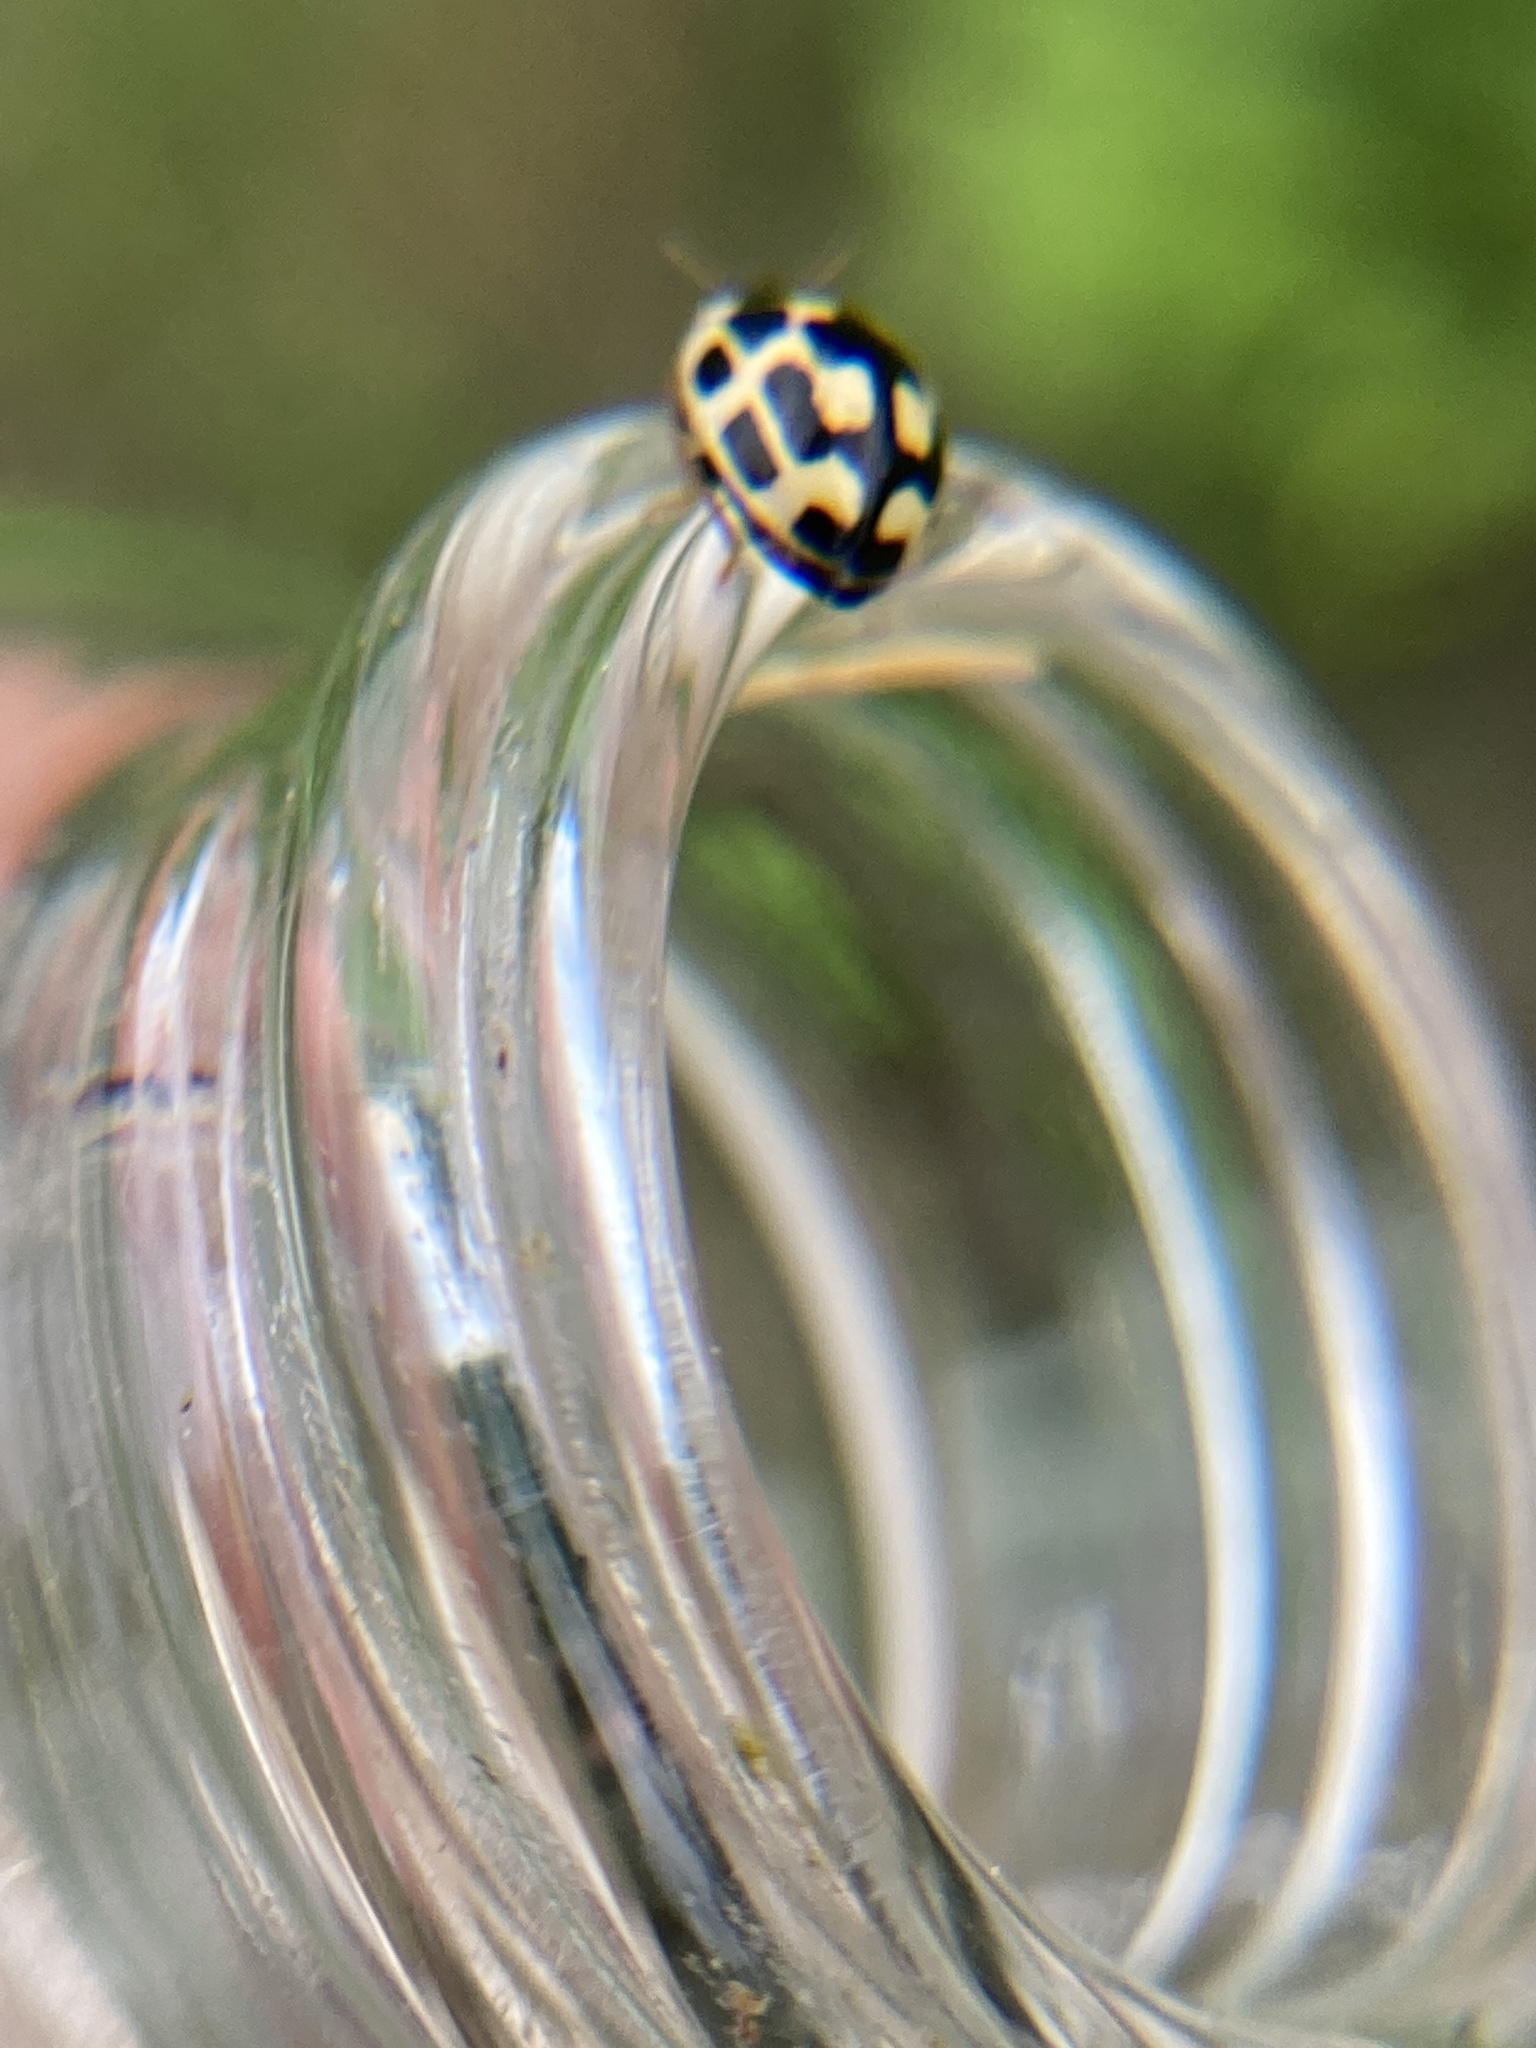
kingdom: Animalia
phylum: Arthropoda
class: Insecta
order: Coleoptera
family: Coccinellidae
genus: Propylaea
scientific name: Propylaea quatuordecimpunctata
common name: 14-spotted ladybird beetle
